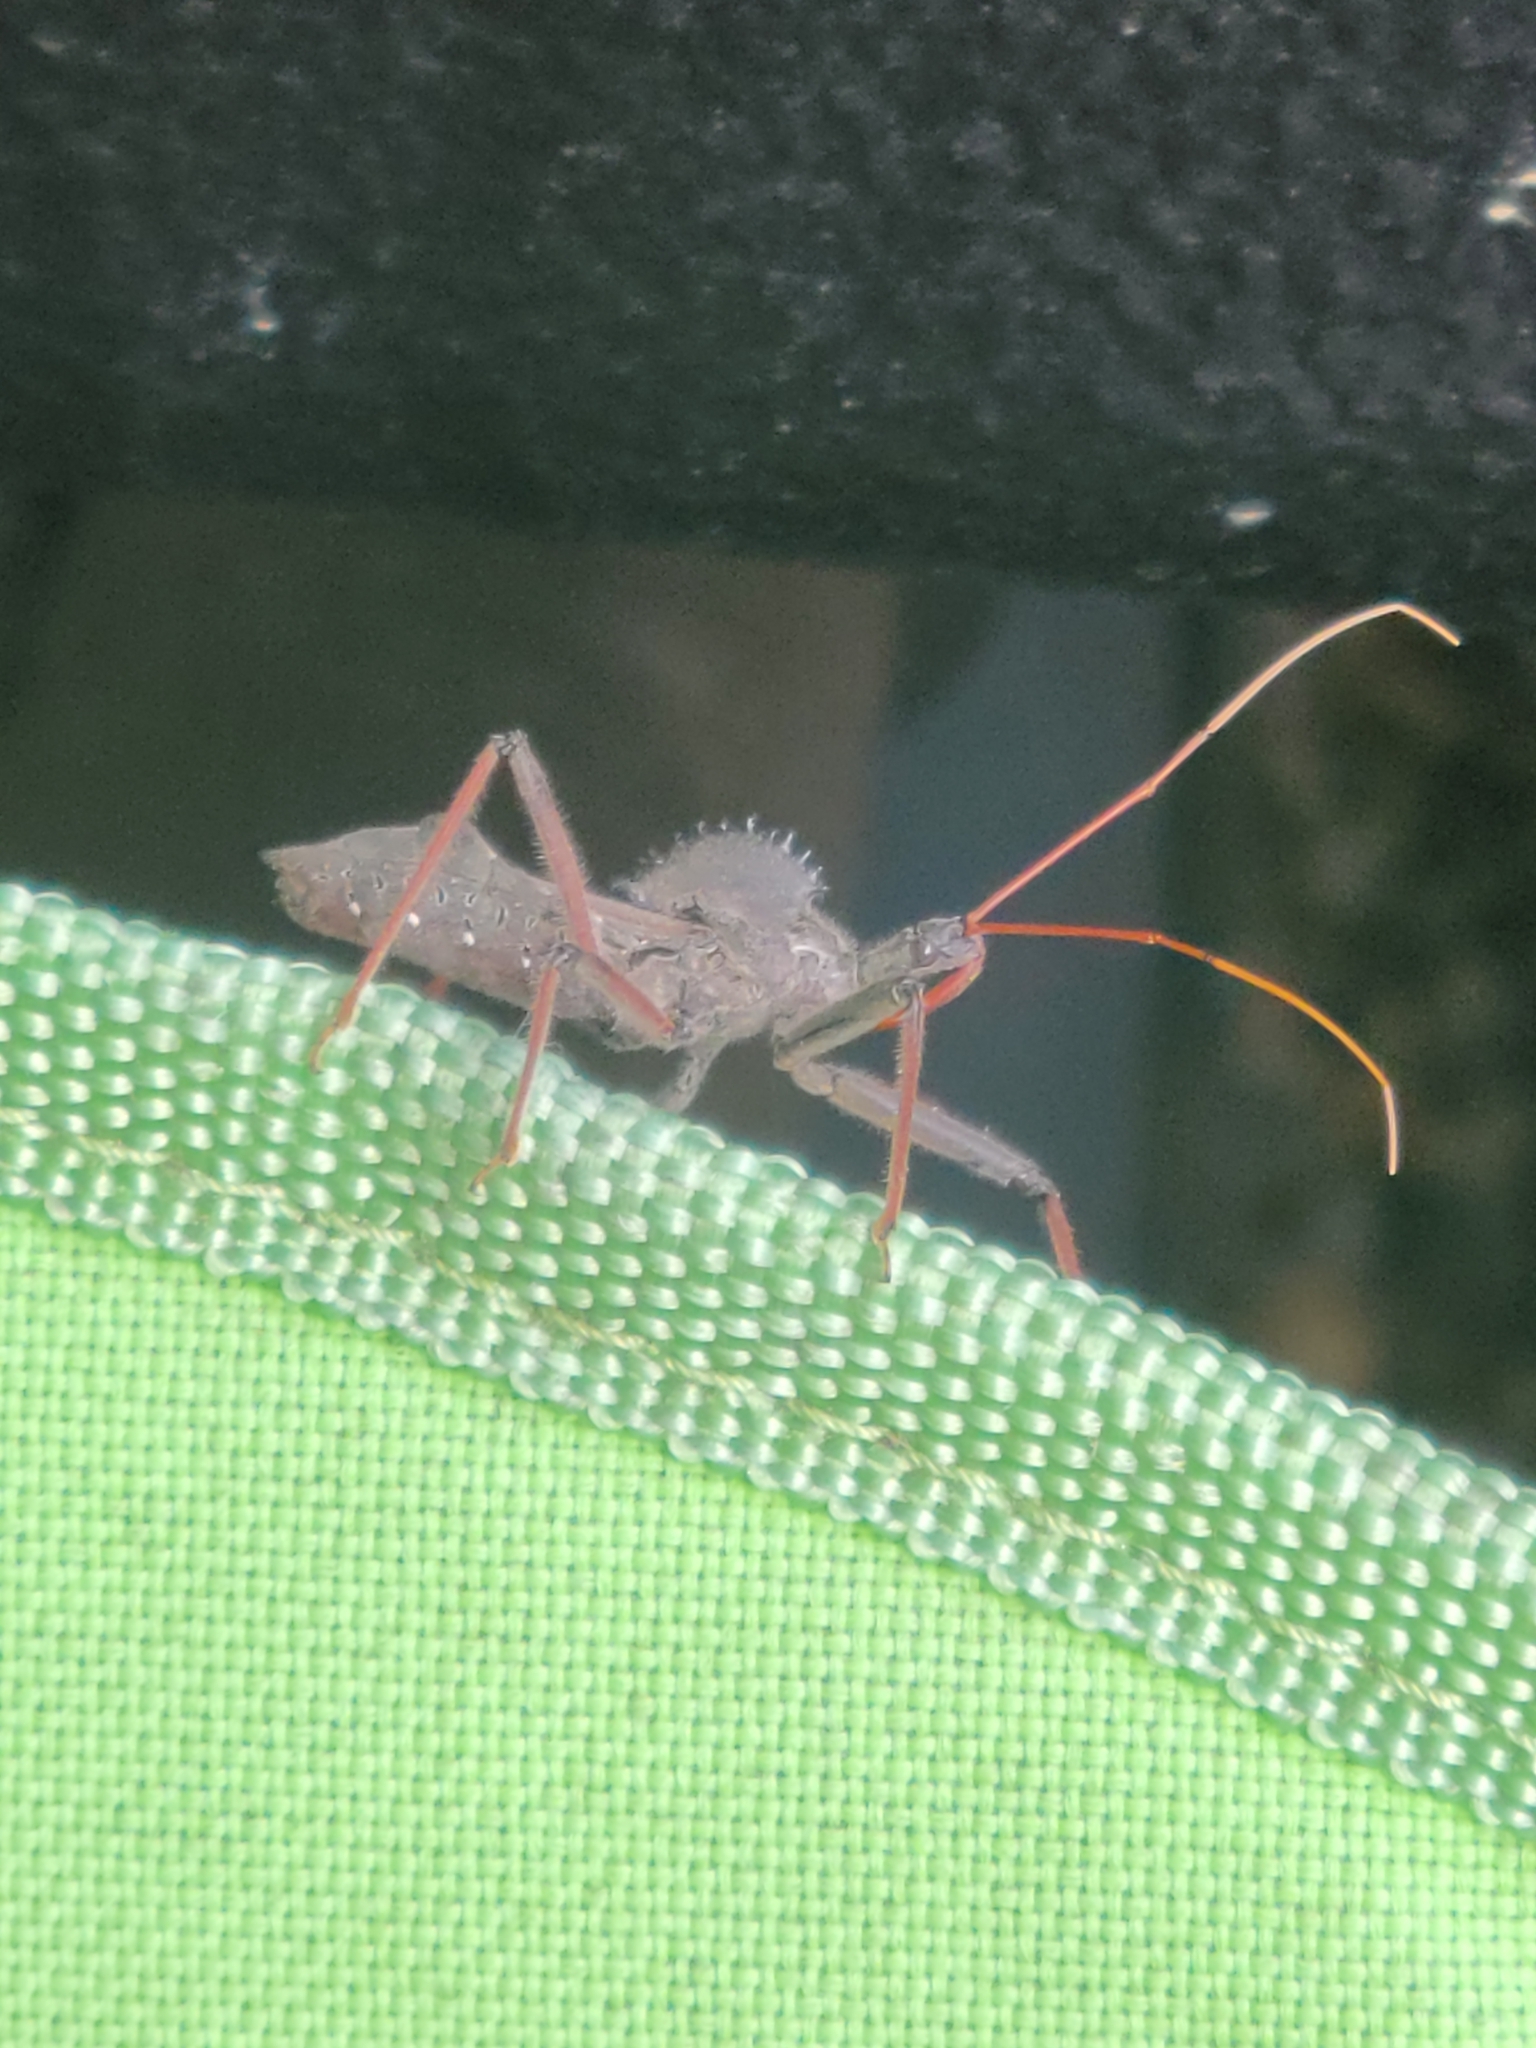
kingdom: Animalia
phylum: Arthropoda
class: Insecta
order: Hemiptera
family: Reduviidae
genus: Arilus
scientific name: Arilus cristatus
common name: North american wheel bug
